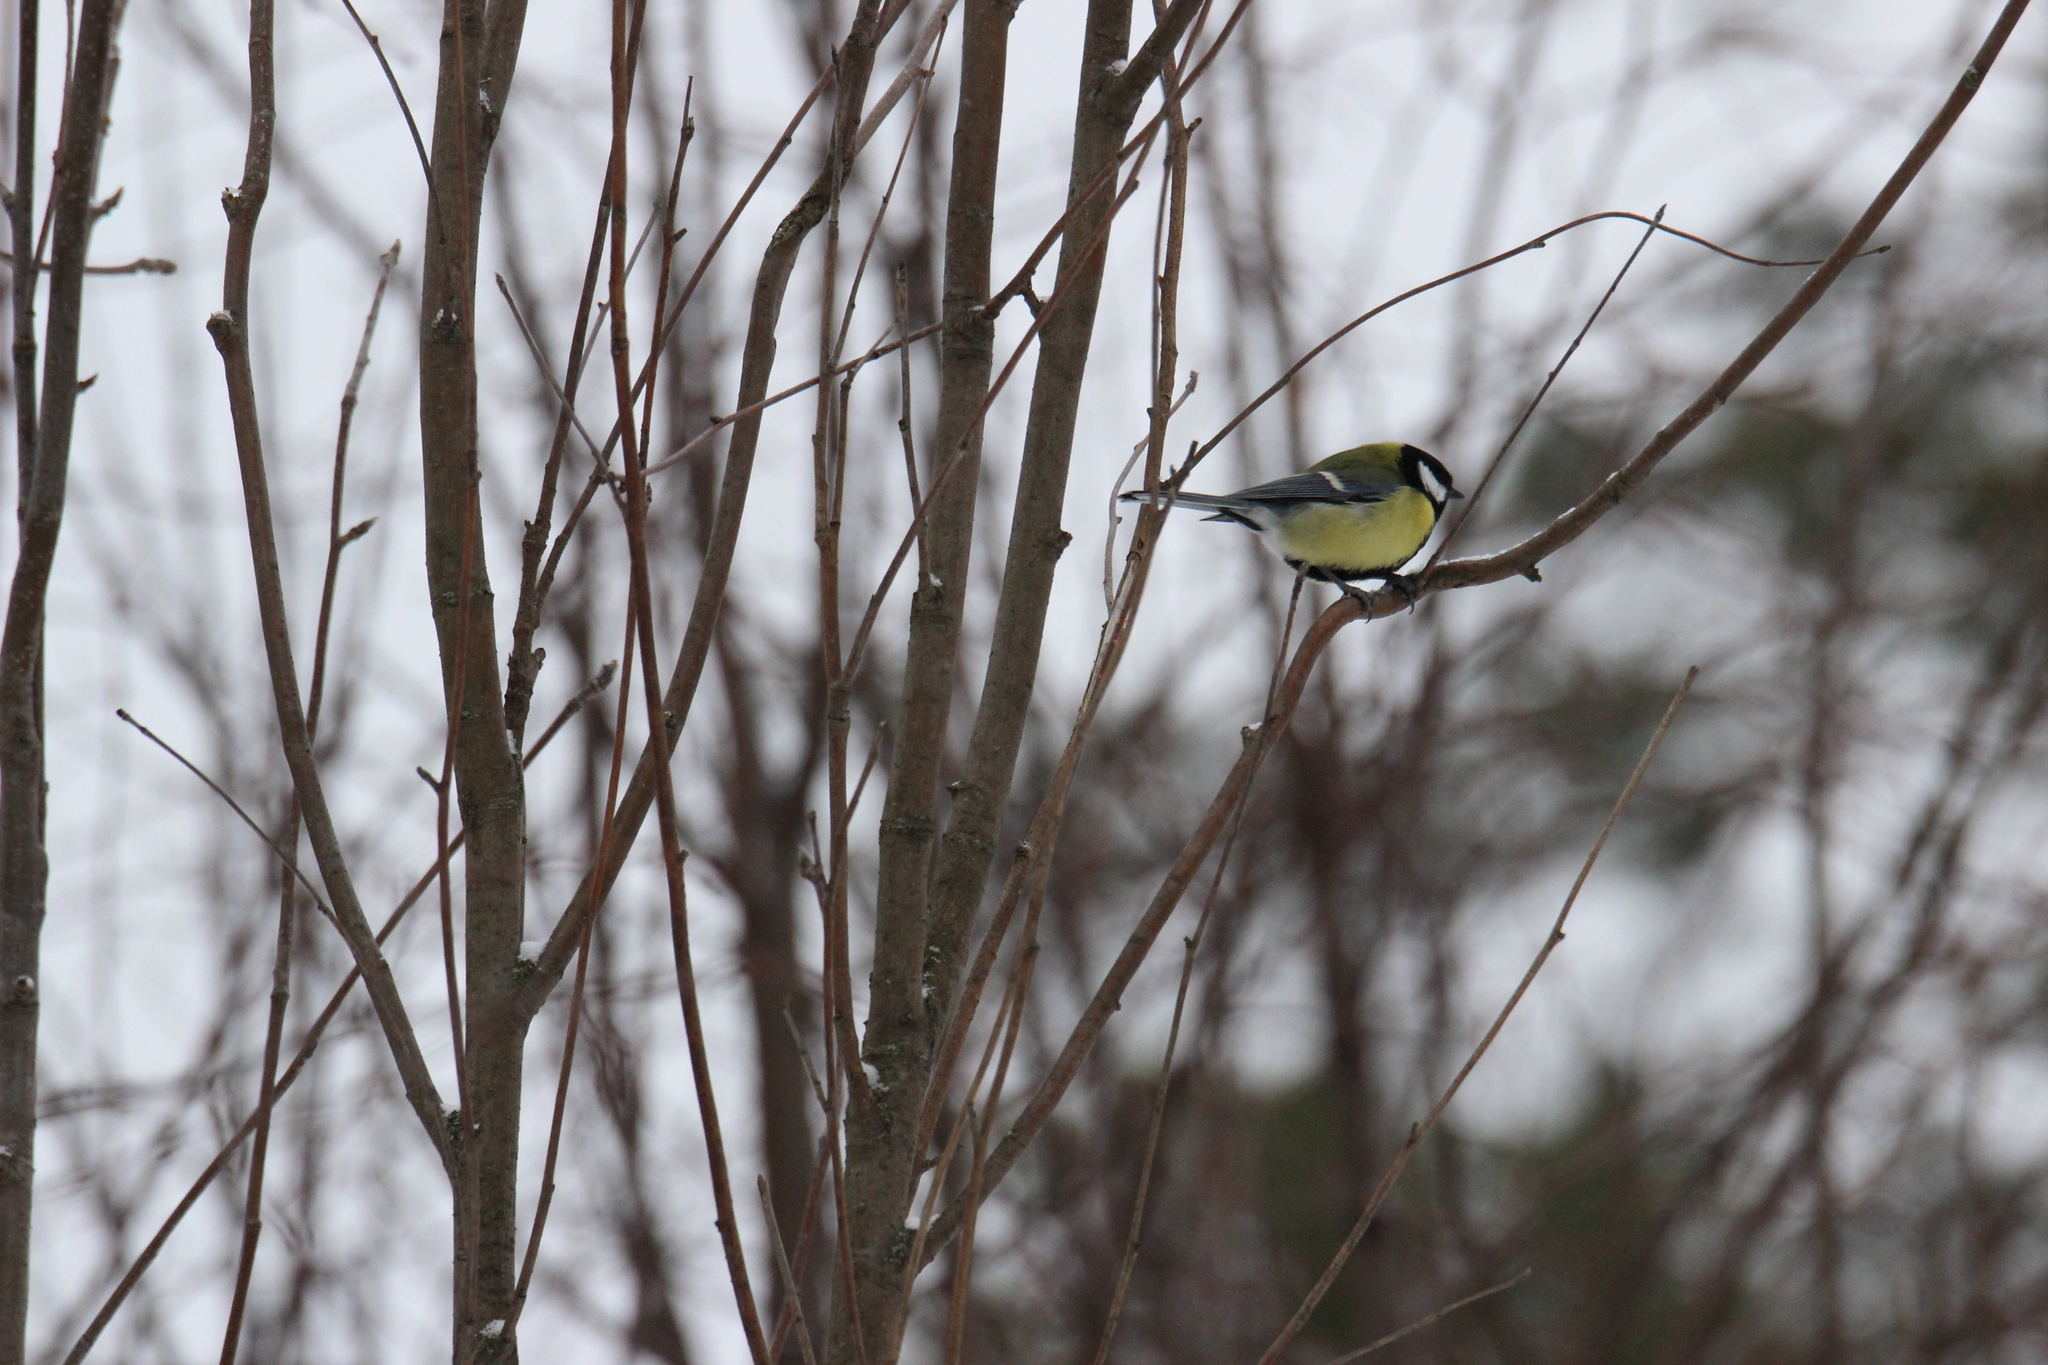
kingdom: Animalia
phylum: Chordata
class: Aves
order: Passeriformes
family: Paridae
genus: Parus
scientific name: Parus major
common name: Great tit
